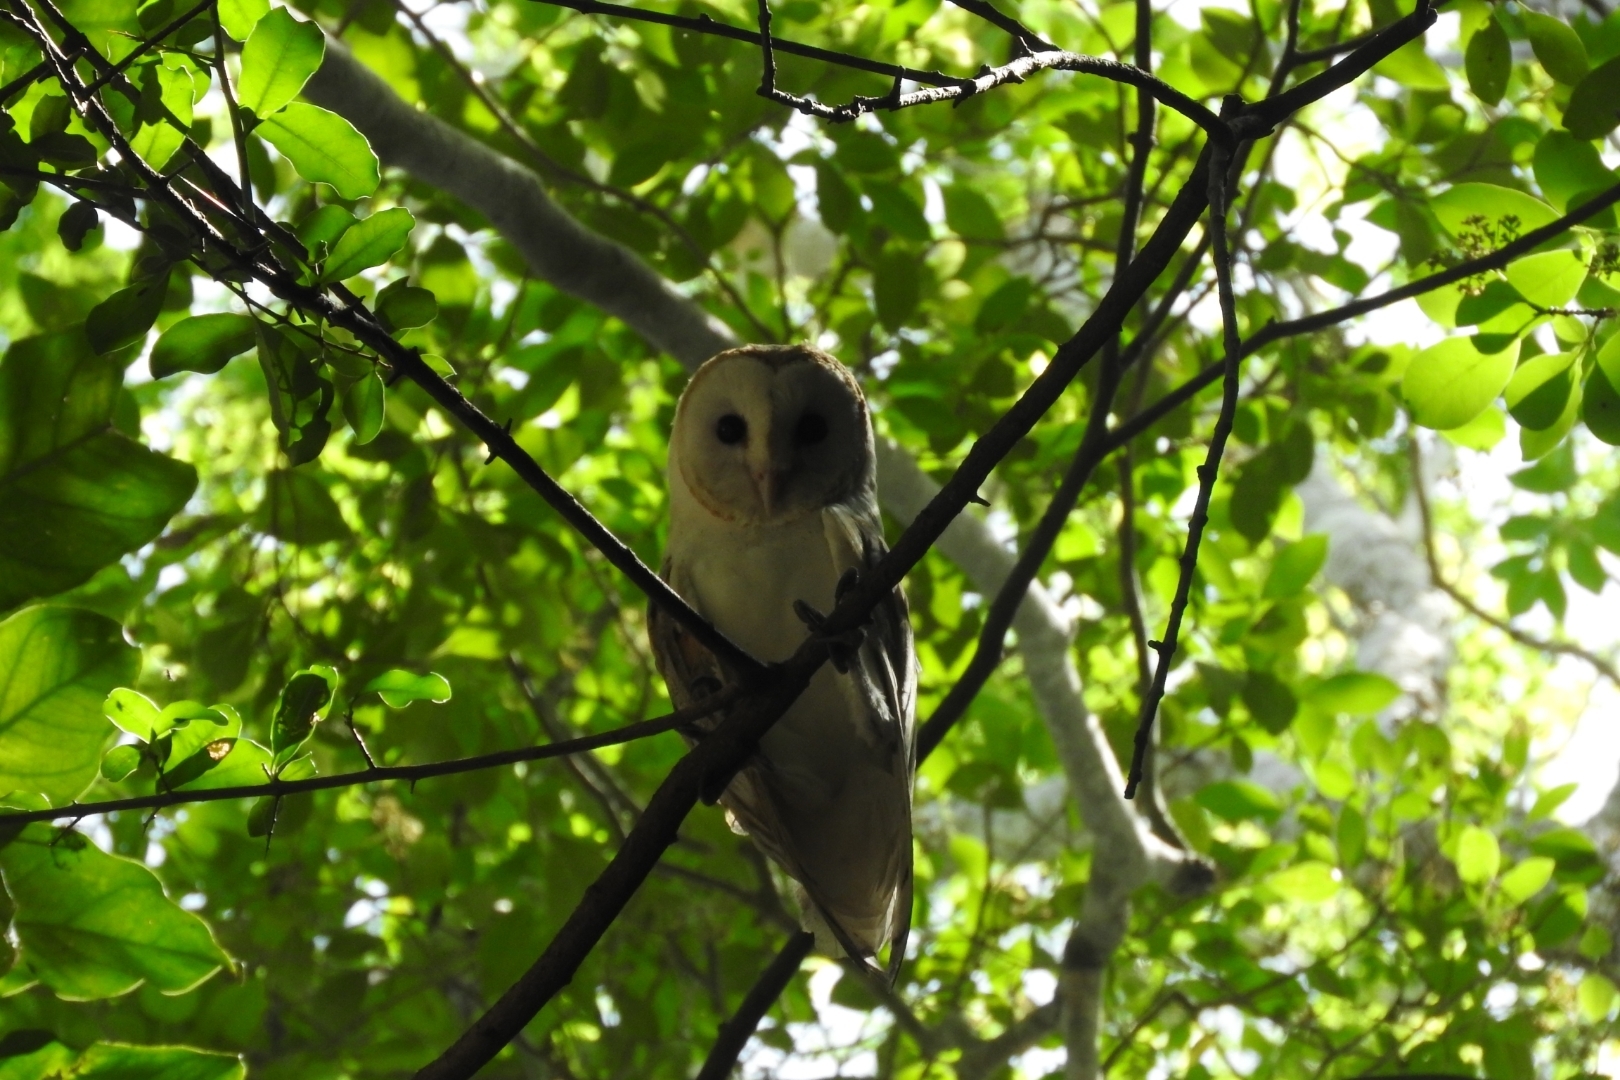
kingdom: Animalia
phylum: Chordata
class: Aves
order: Strigiformes
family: Tytonidae
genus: Tyto
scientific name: Tyto alba
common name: Barn owl
